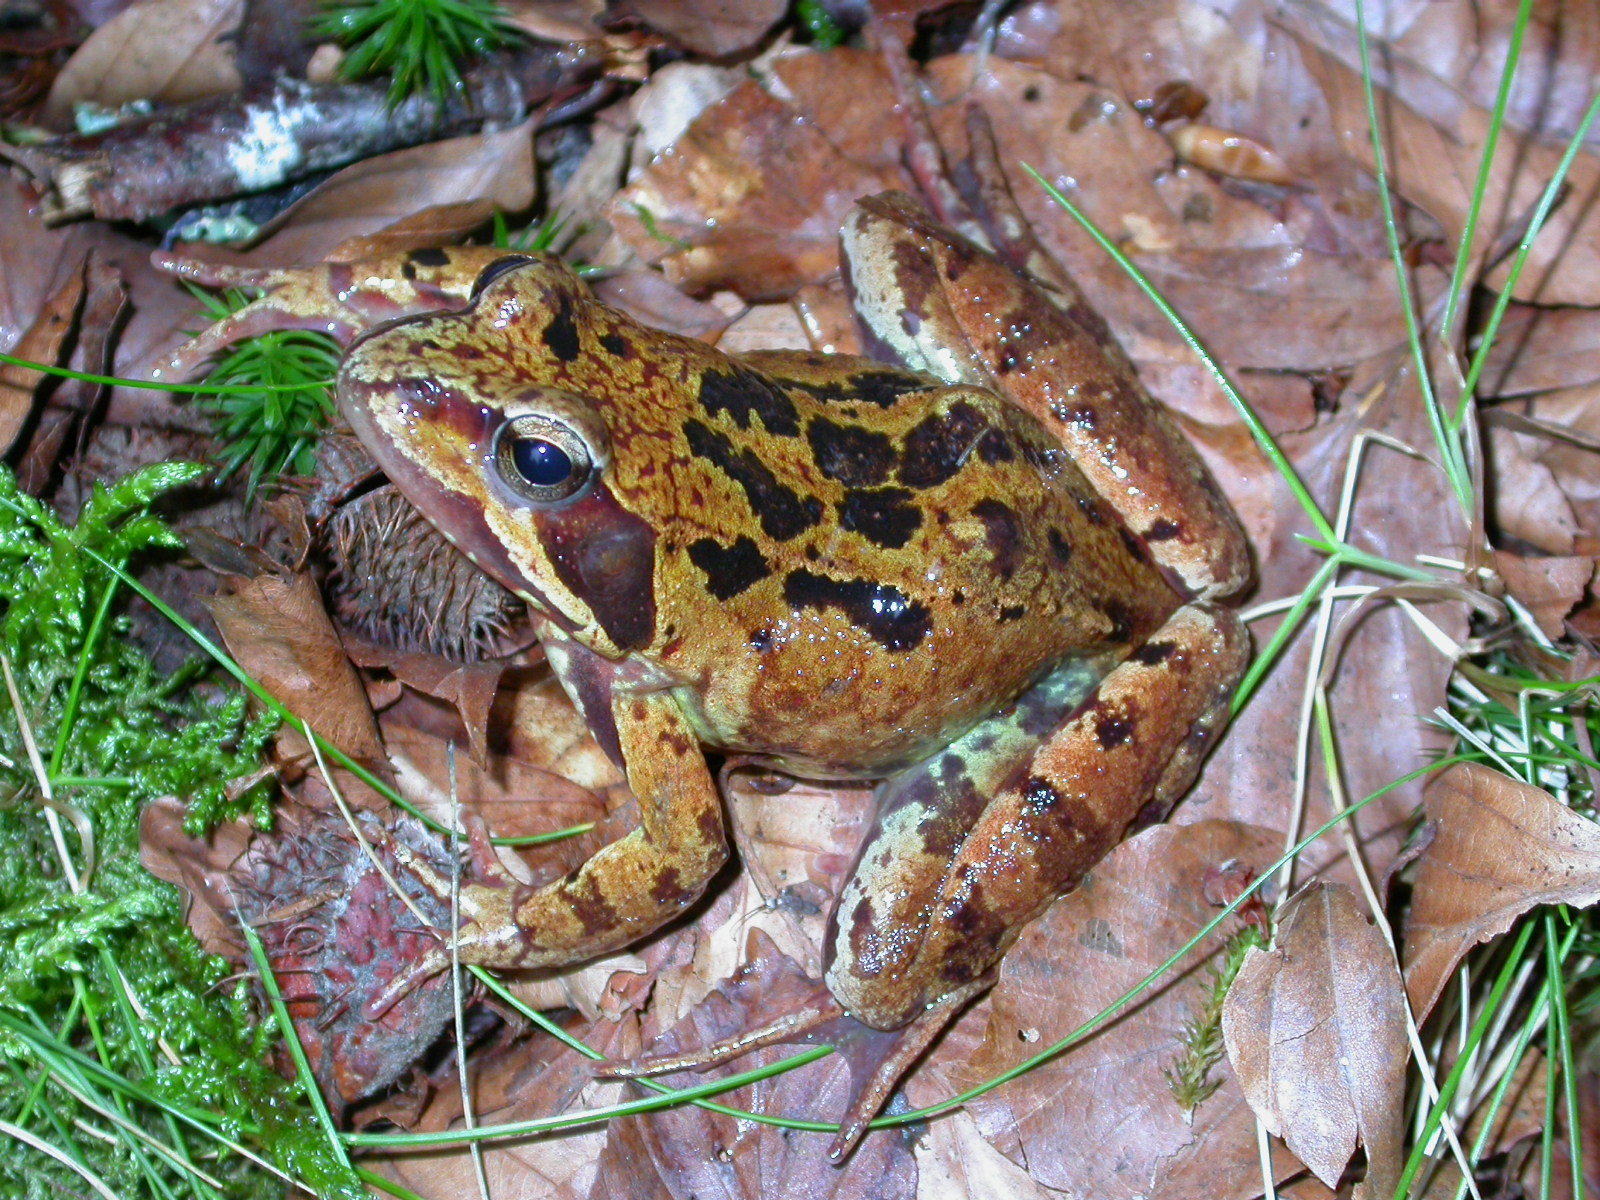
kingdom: Animalia
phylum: Chordata
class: Amphibia
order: Anura
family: Ranidae
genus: Rana
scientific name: Rana temporaria
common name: Common frog
